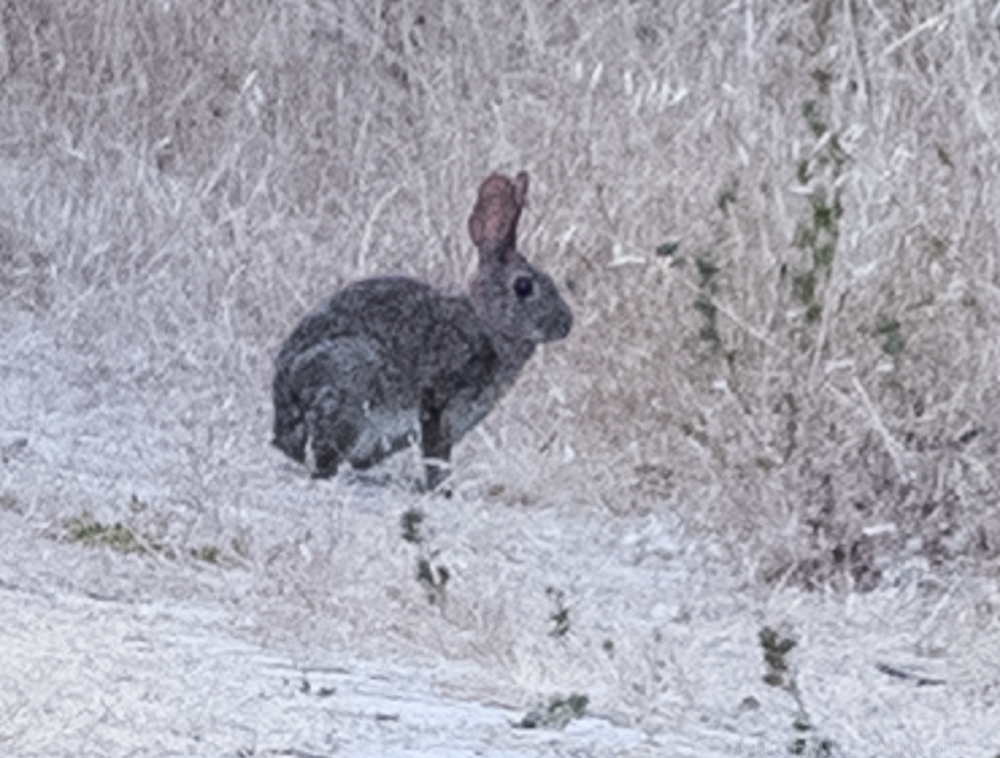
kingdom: Animalia
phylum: Chordata
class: Mammalia
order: Lagomorpha
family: Leporidae
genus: Sylvilagus
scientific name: Sylvilagus bachmani
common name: Brush rabbit
